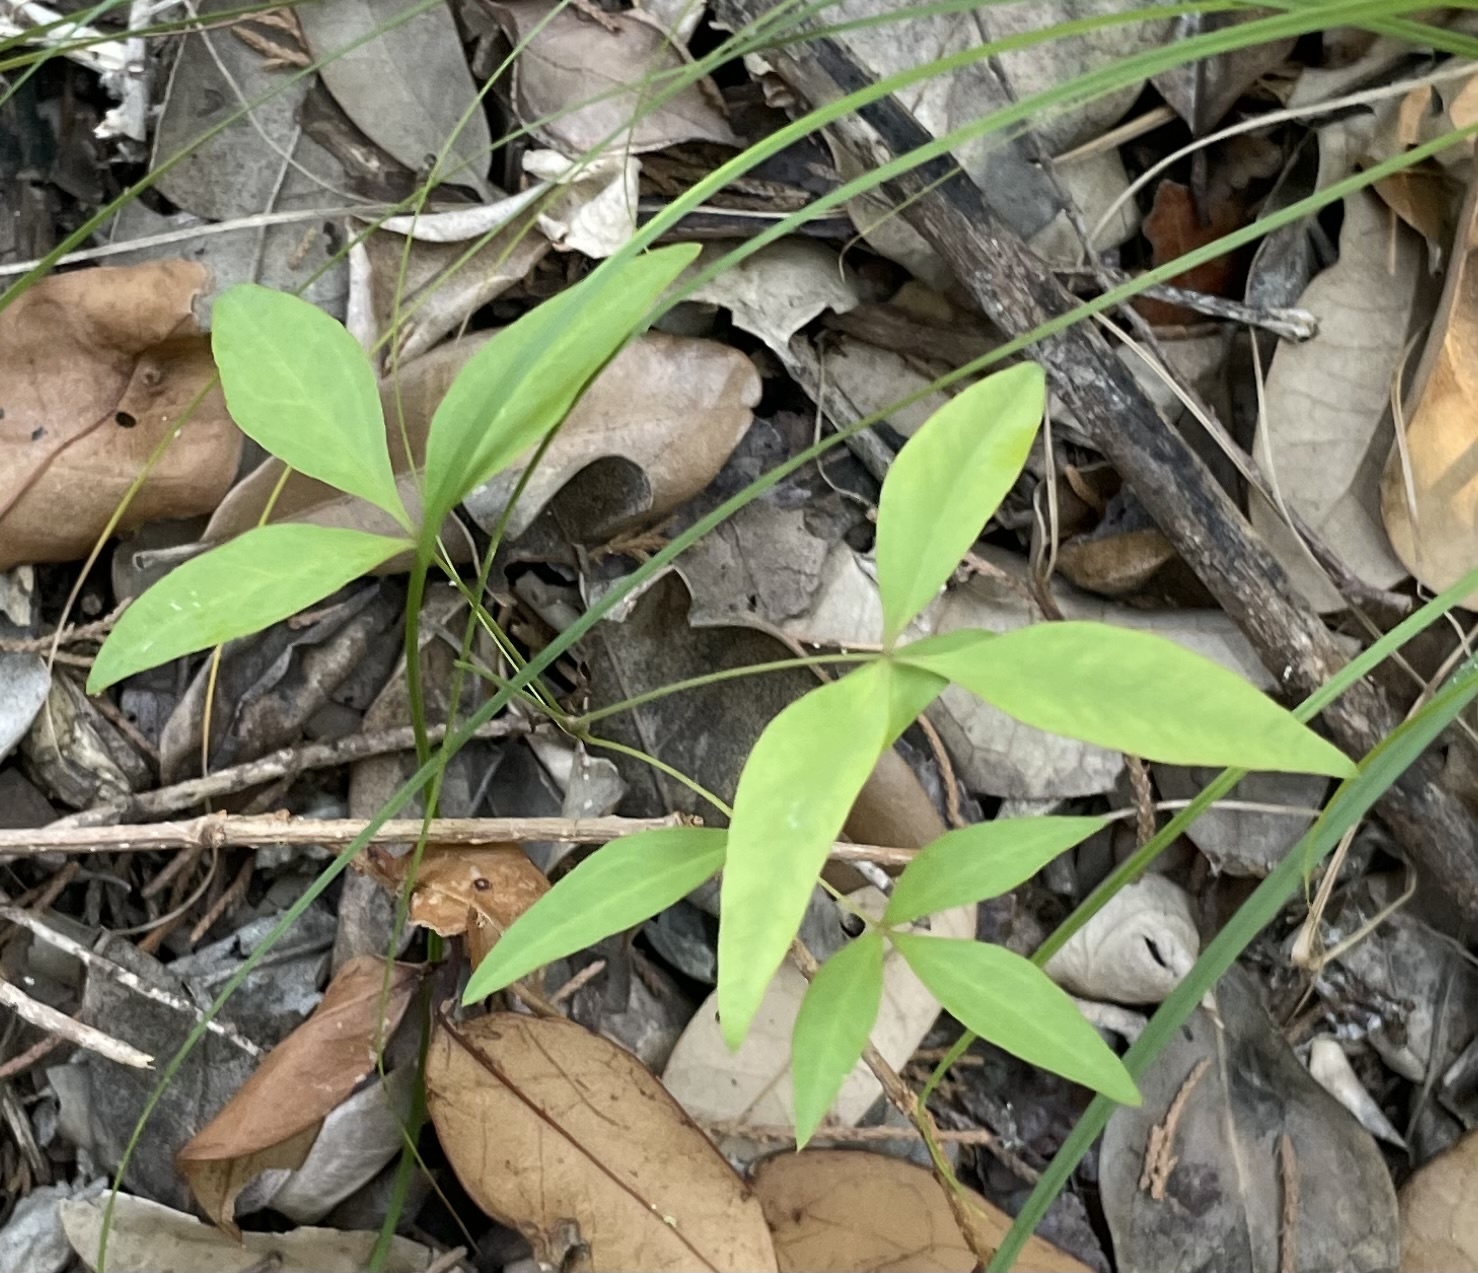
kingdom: Plantae
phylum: Tracheophyta
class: Magnoliopsida
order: Ranunculales
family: Berberidaceae
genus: Nandina
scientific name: Nandina domestica
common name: Sacred bamboo
